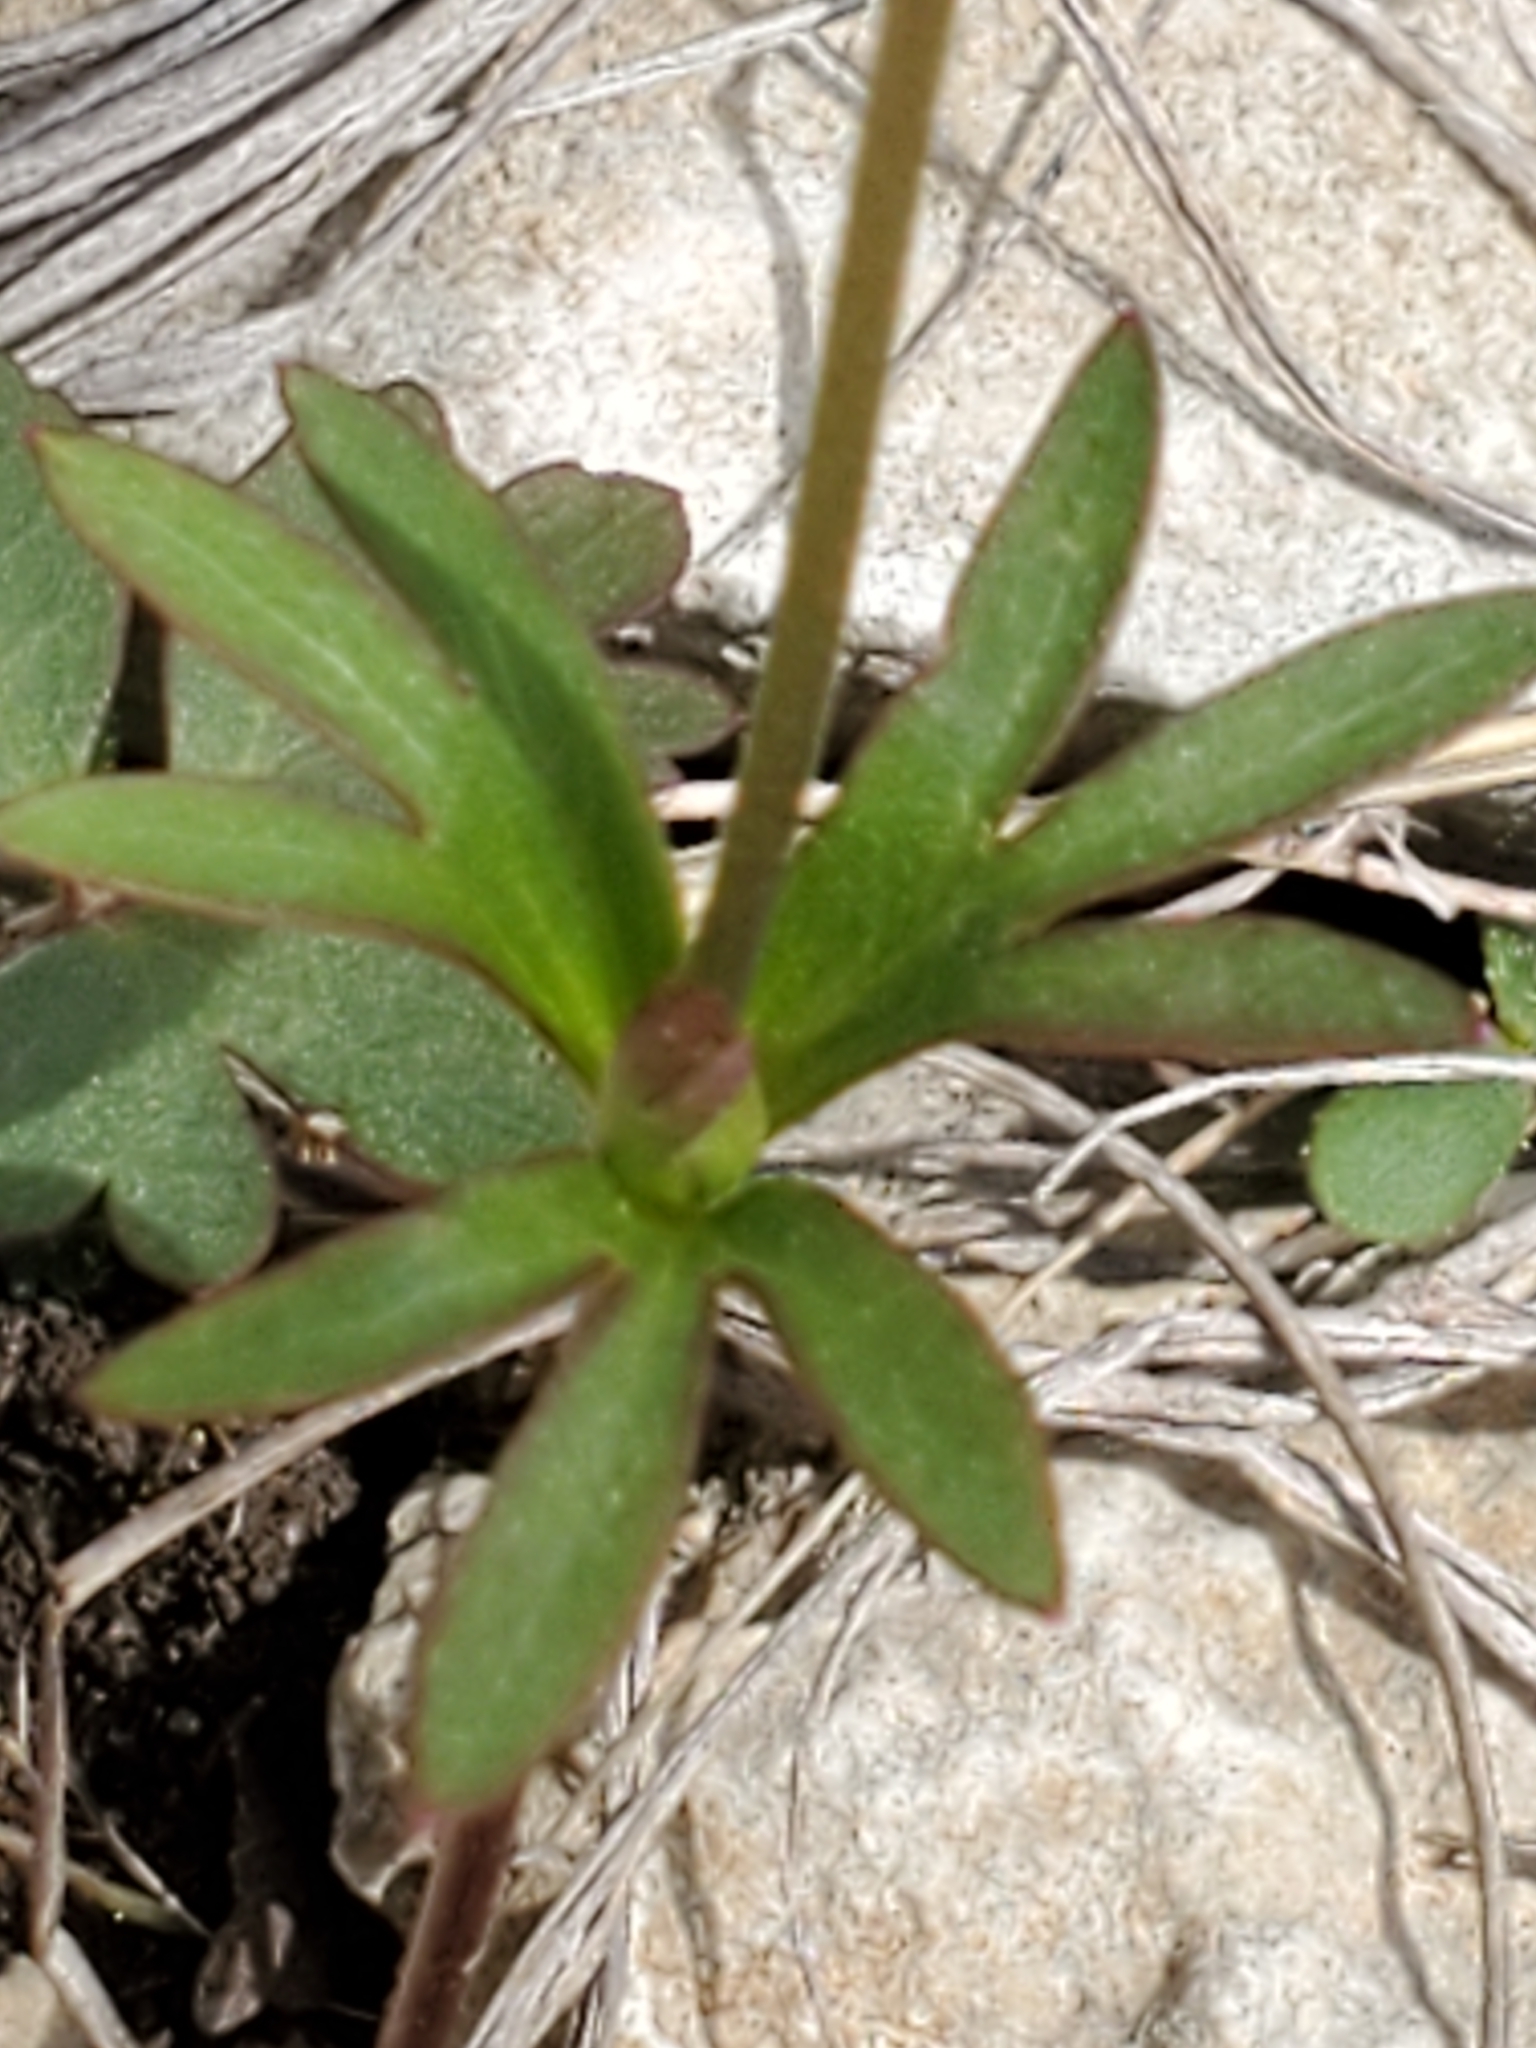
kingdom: Plantae
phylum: Tracheophyta
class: Magnoliopsida
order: Ranunculales
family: Ranunculaceae
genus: Anemone
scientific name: Anemone edwardsiana
